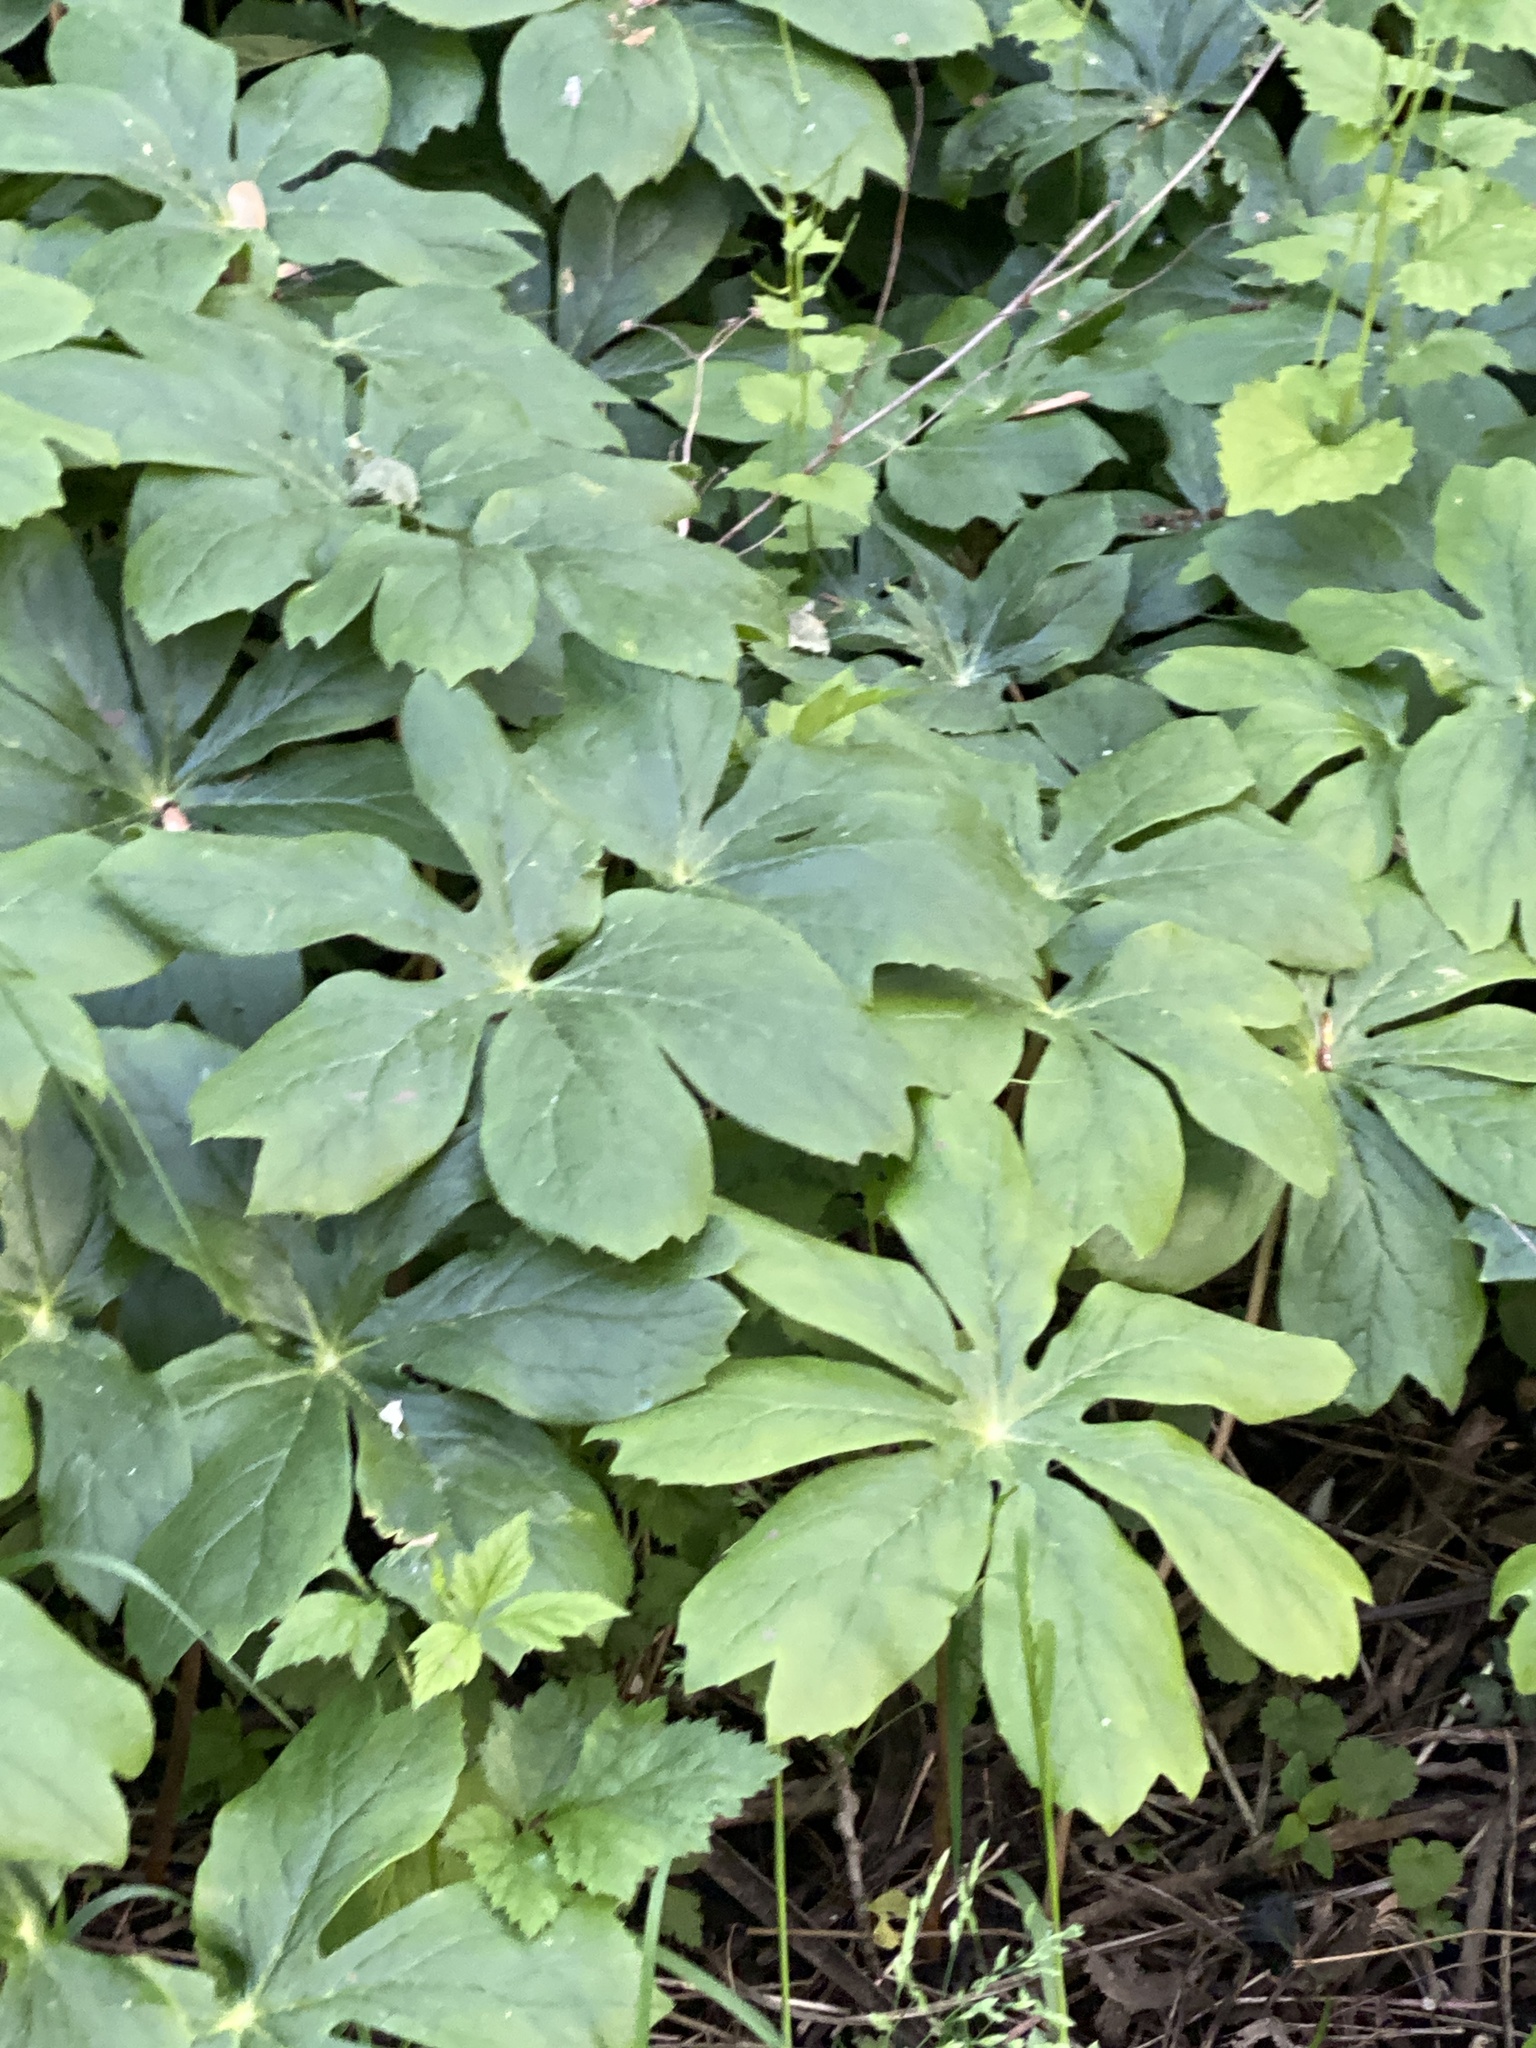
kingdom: Plantae
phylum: Tracheophyta
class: Magnoliopsida
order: Ranunculales
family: Berberidaceae
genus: Podophyllum
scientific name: Podophyllum peltatum
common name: Wild mandrake
